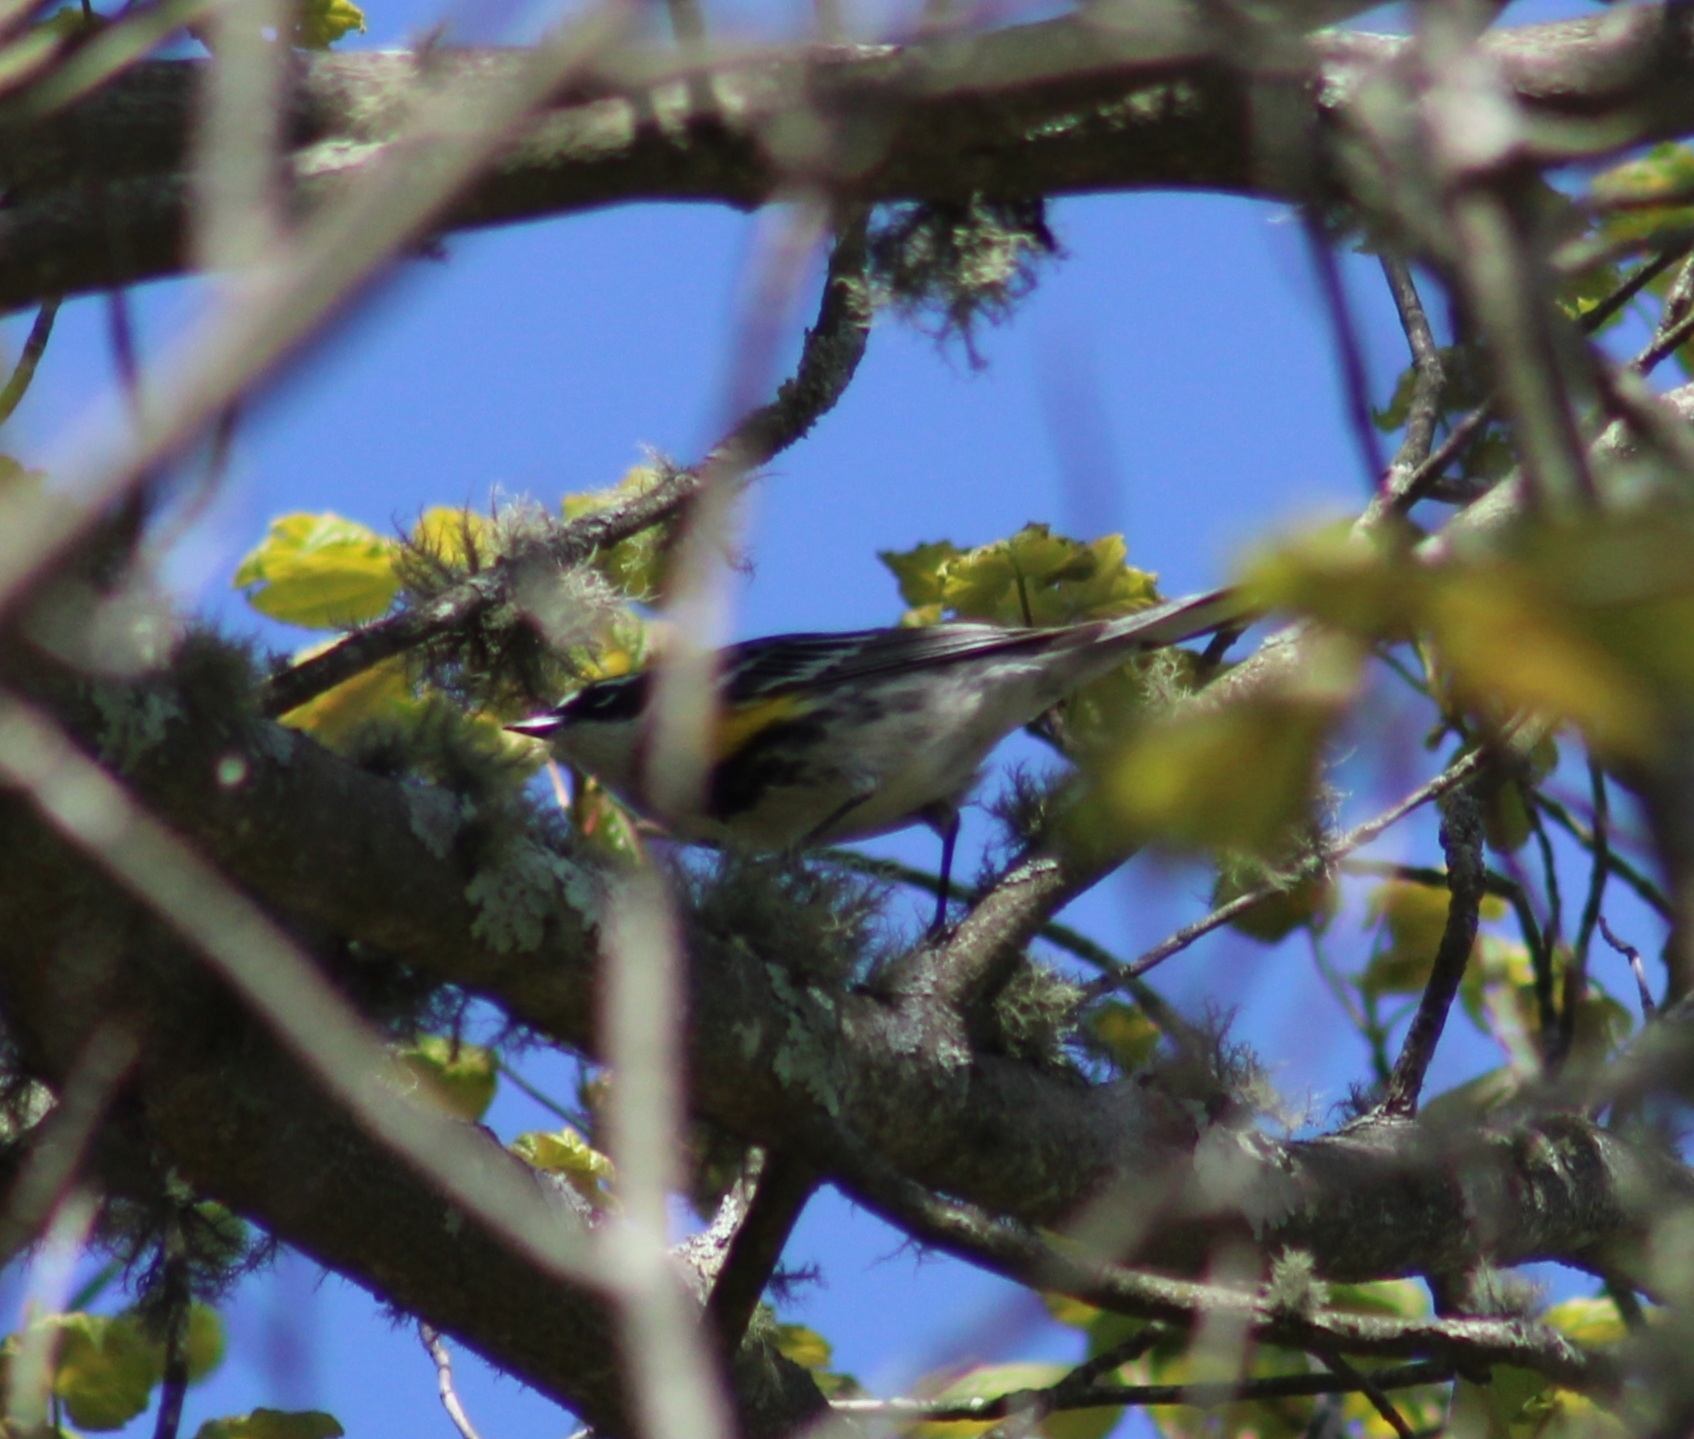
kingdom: Animalia
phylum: Chordata
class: Aves
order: Passeriformes
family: Parulidae
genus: Setophaga
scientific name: Setophaga coronata
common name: Myrtle warbler
